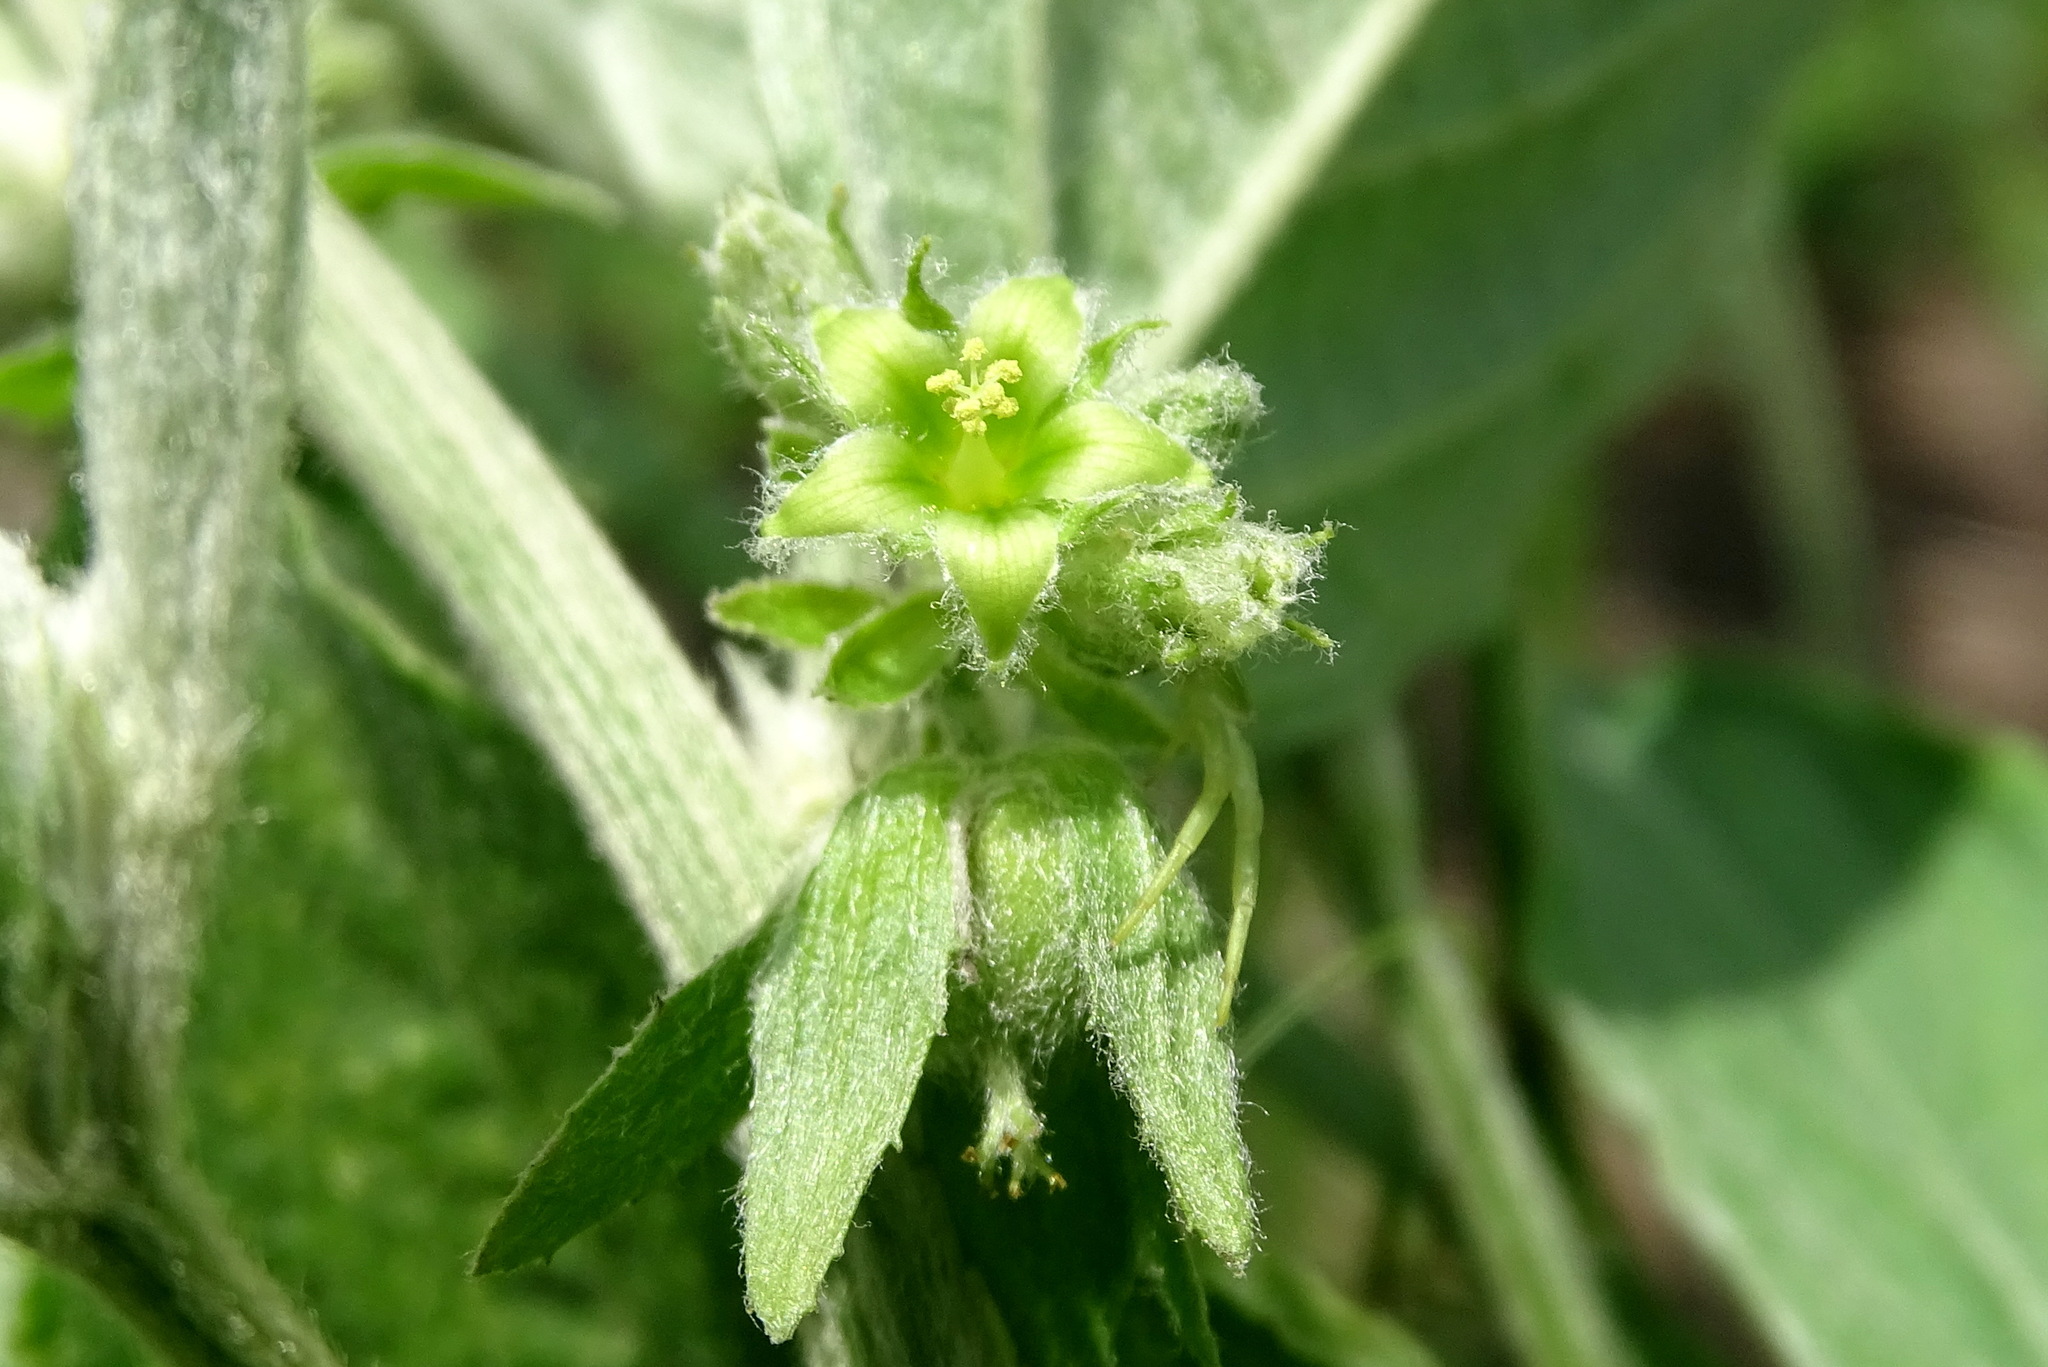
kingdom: Plantae
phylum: Tracheophyta
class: Magnoliopsida
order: Malpighiales
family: Euphorbiaceae
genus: Ditaxis
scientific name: Ditaxis guatemalensis
